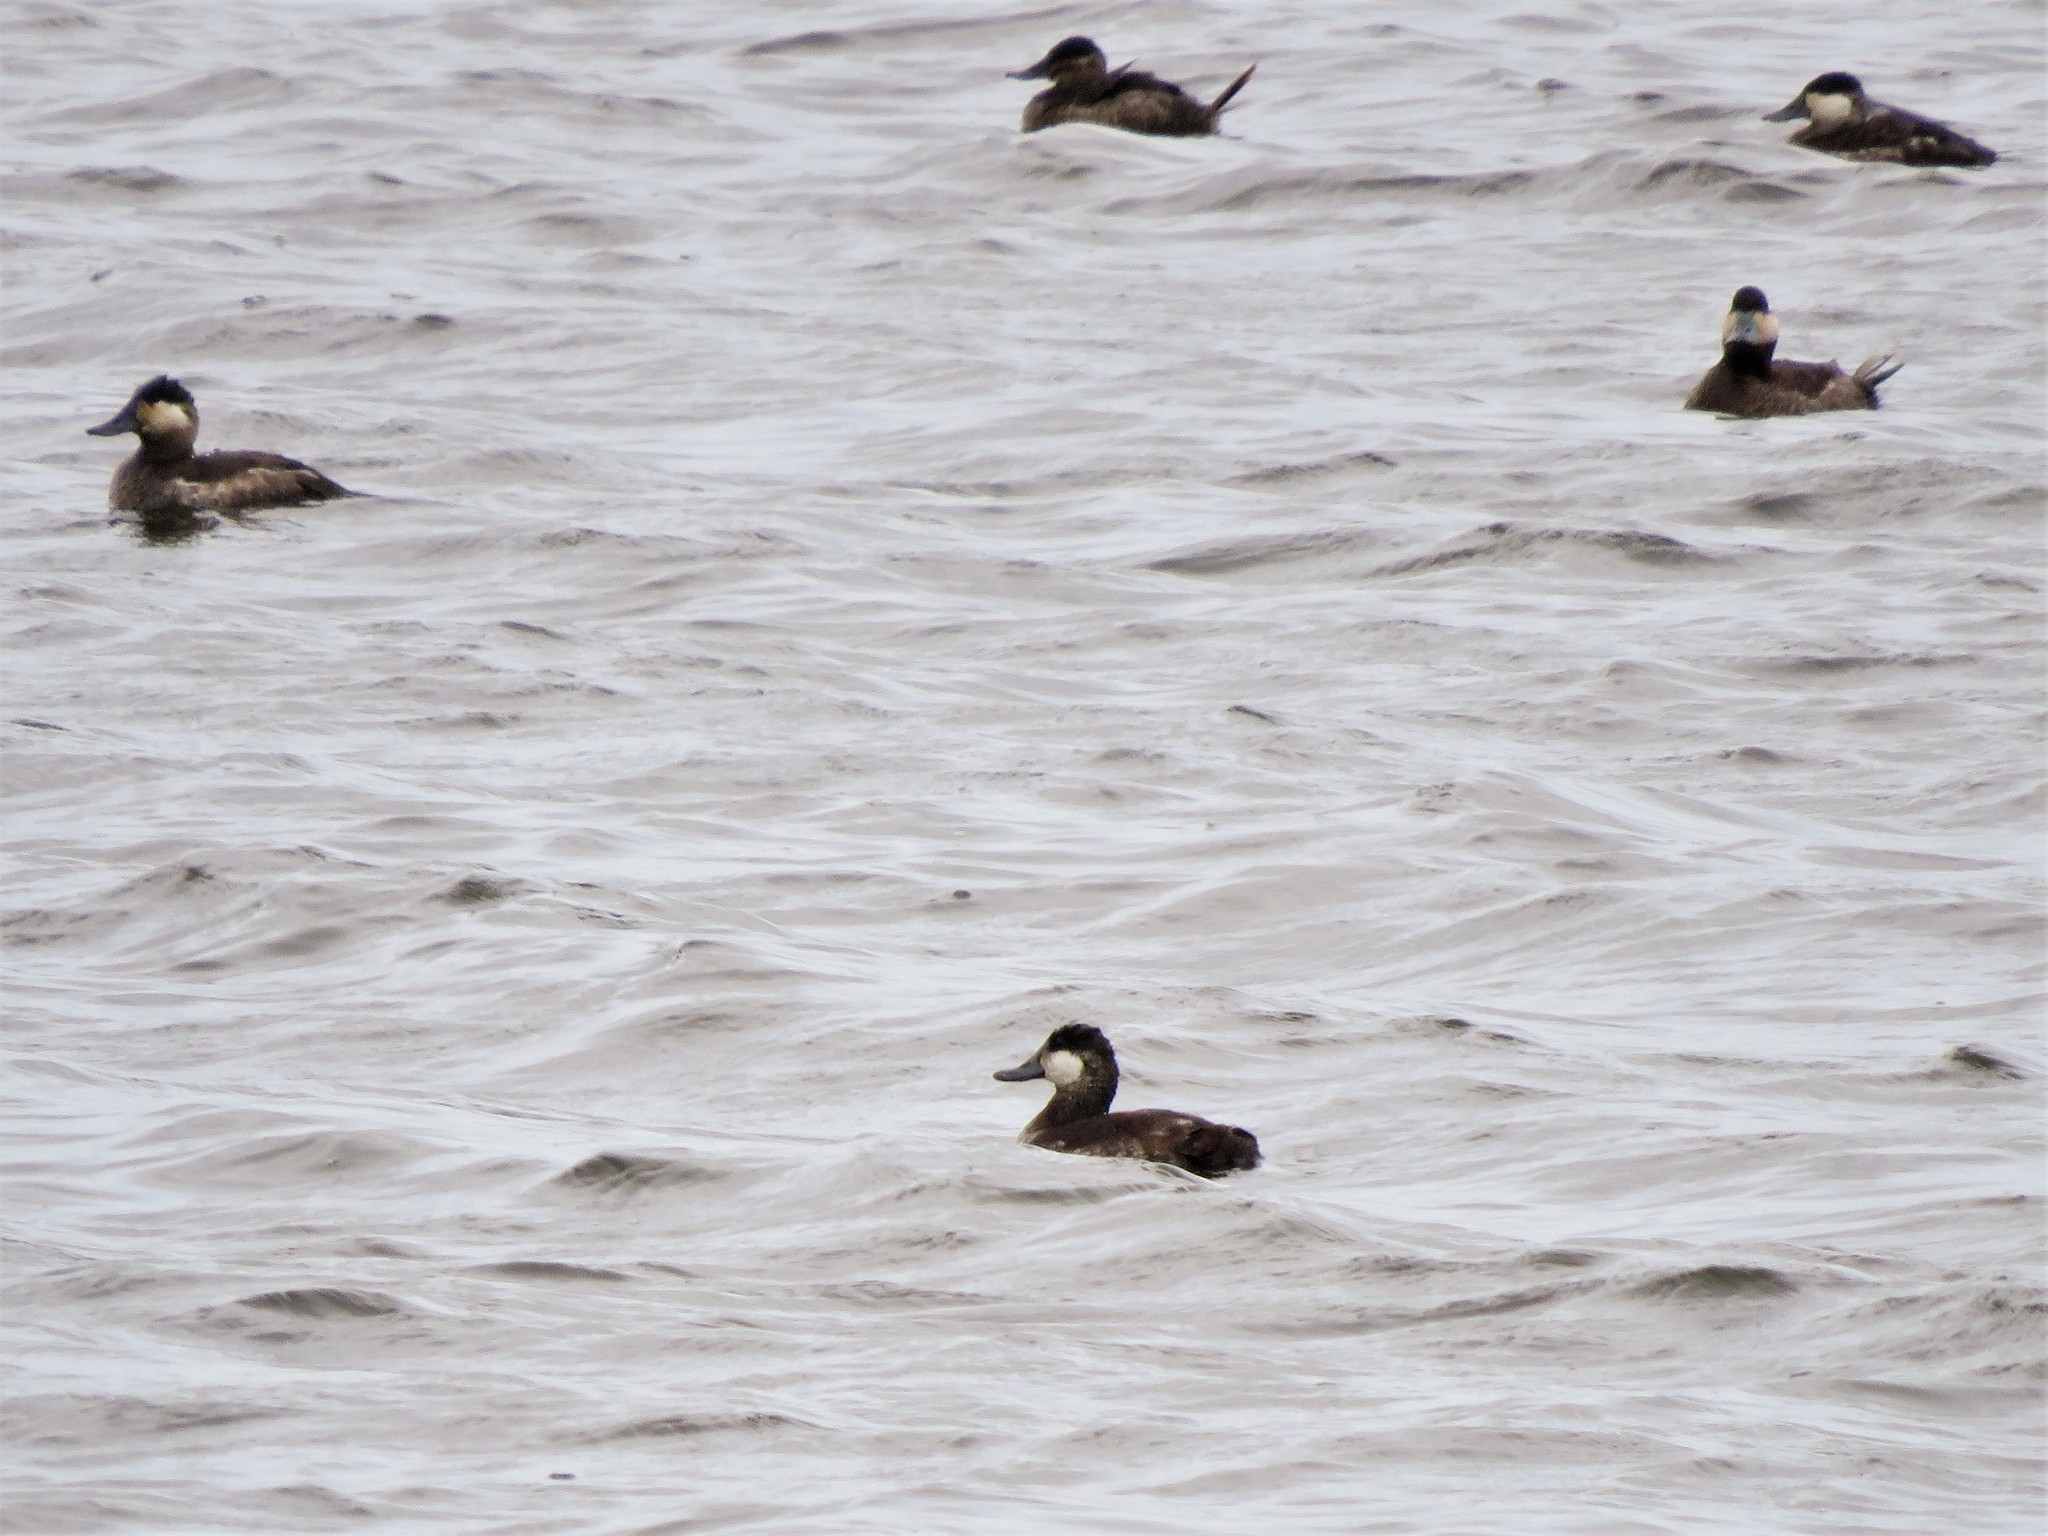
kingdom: Animalia
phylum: Chordata
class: Aves
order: Anseriformes
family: Anatidae
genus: Oxyura
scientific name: Oxyura jamaicensis
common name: Ruddy duck
